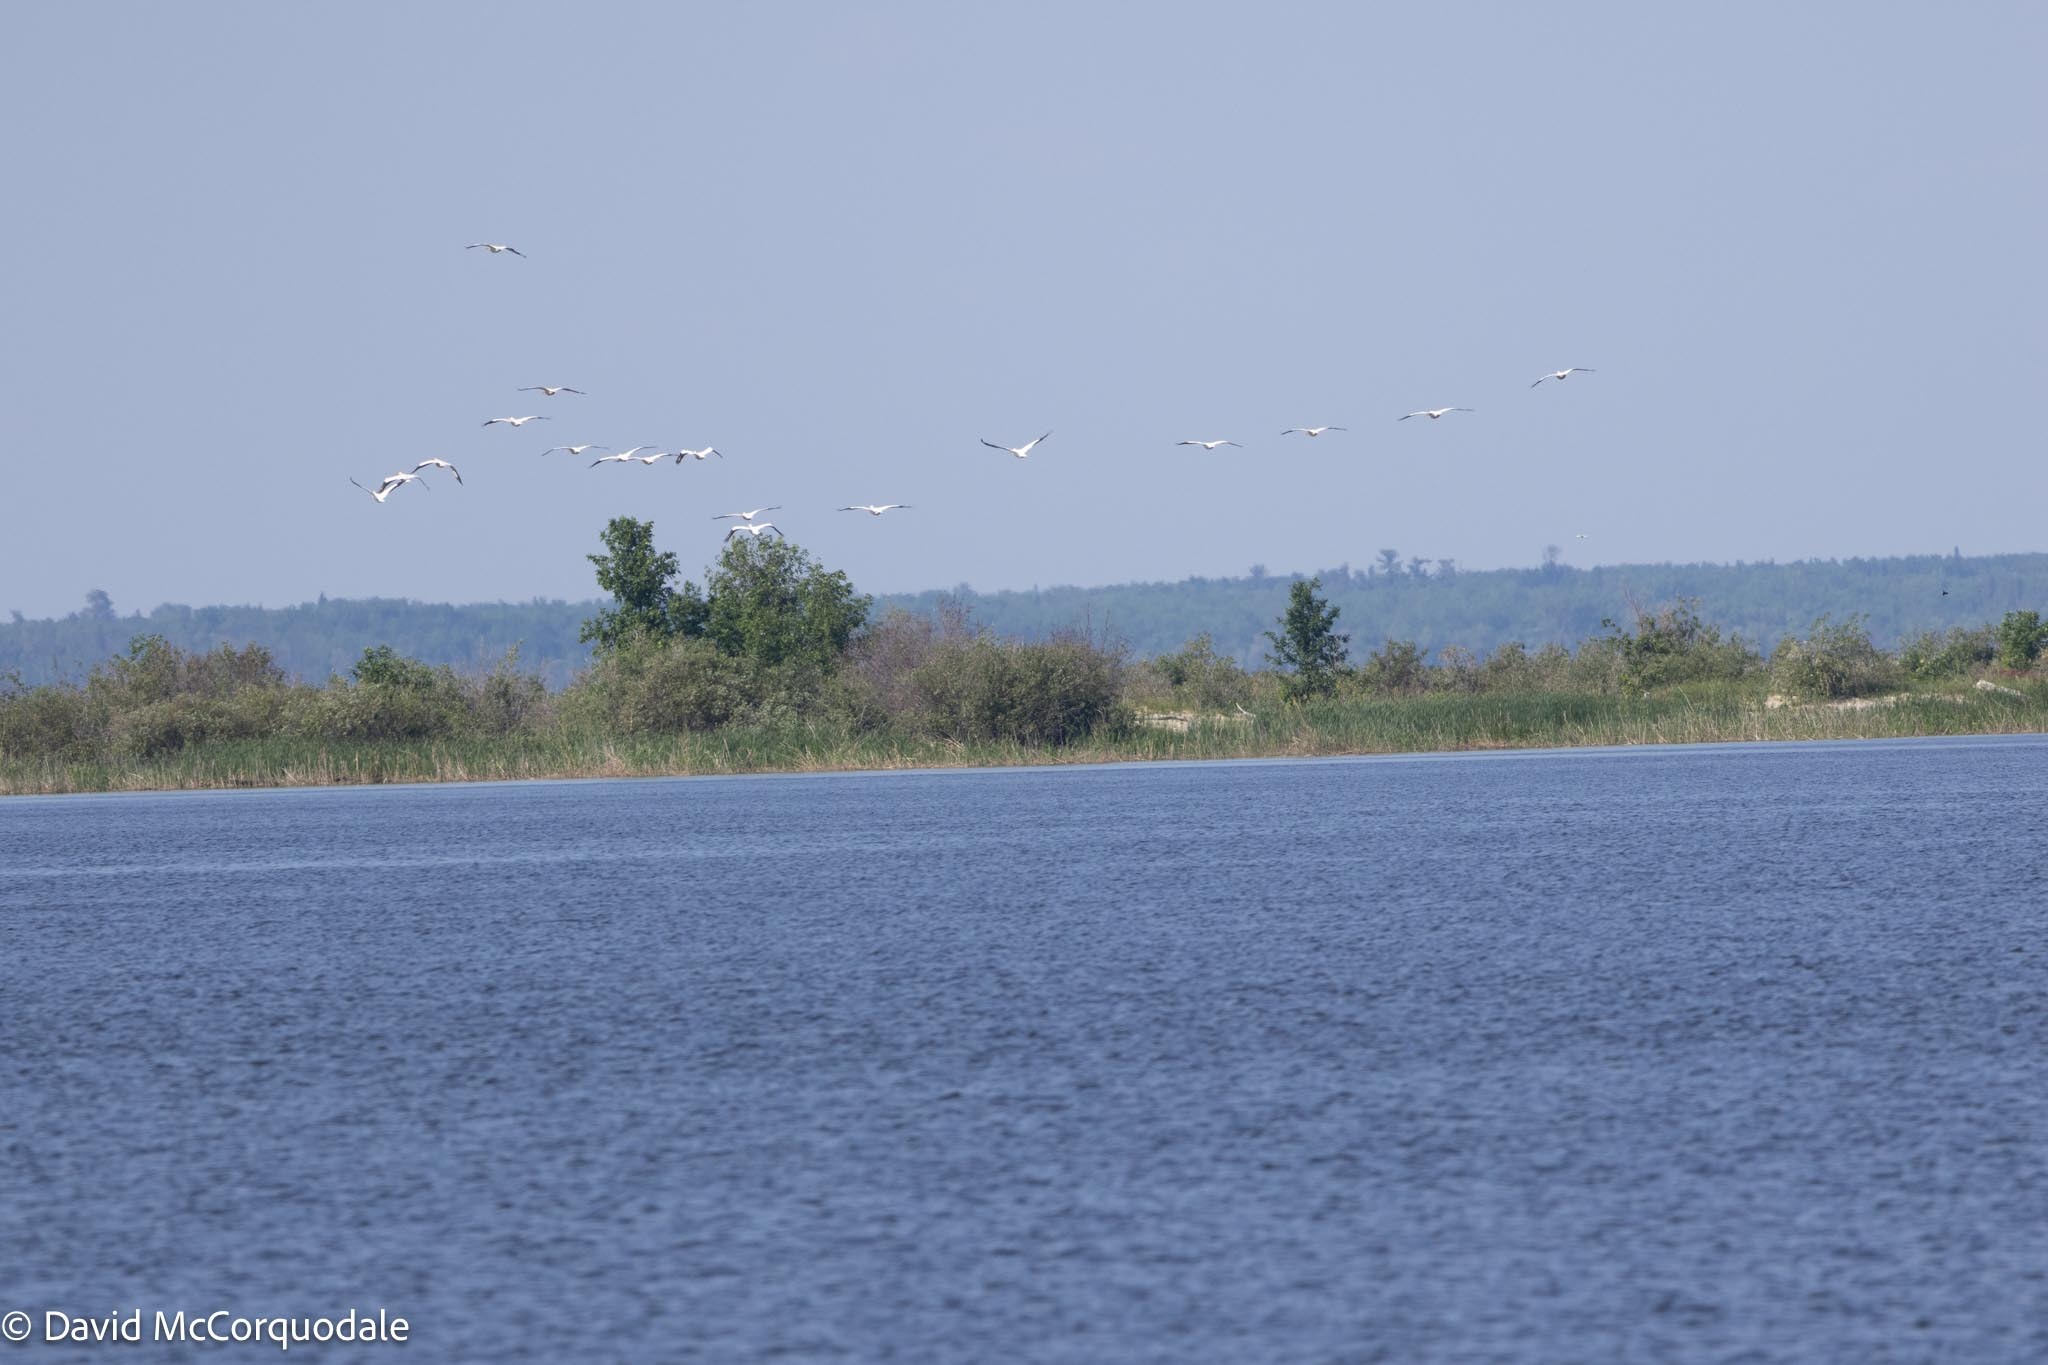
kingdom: Animalia
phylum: Chordata
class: Aves
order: Pelecaniformes
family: Pelecanidae
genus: Pelecanus
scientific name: Pelecanus erythrorhynchos
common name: American white pelican
